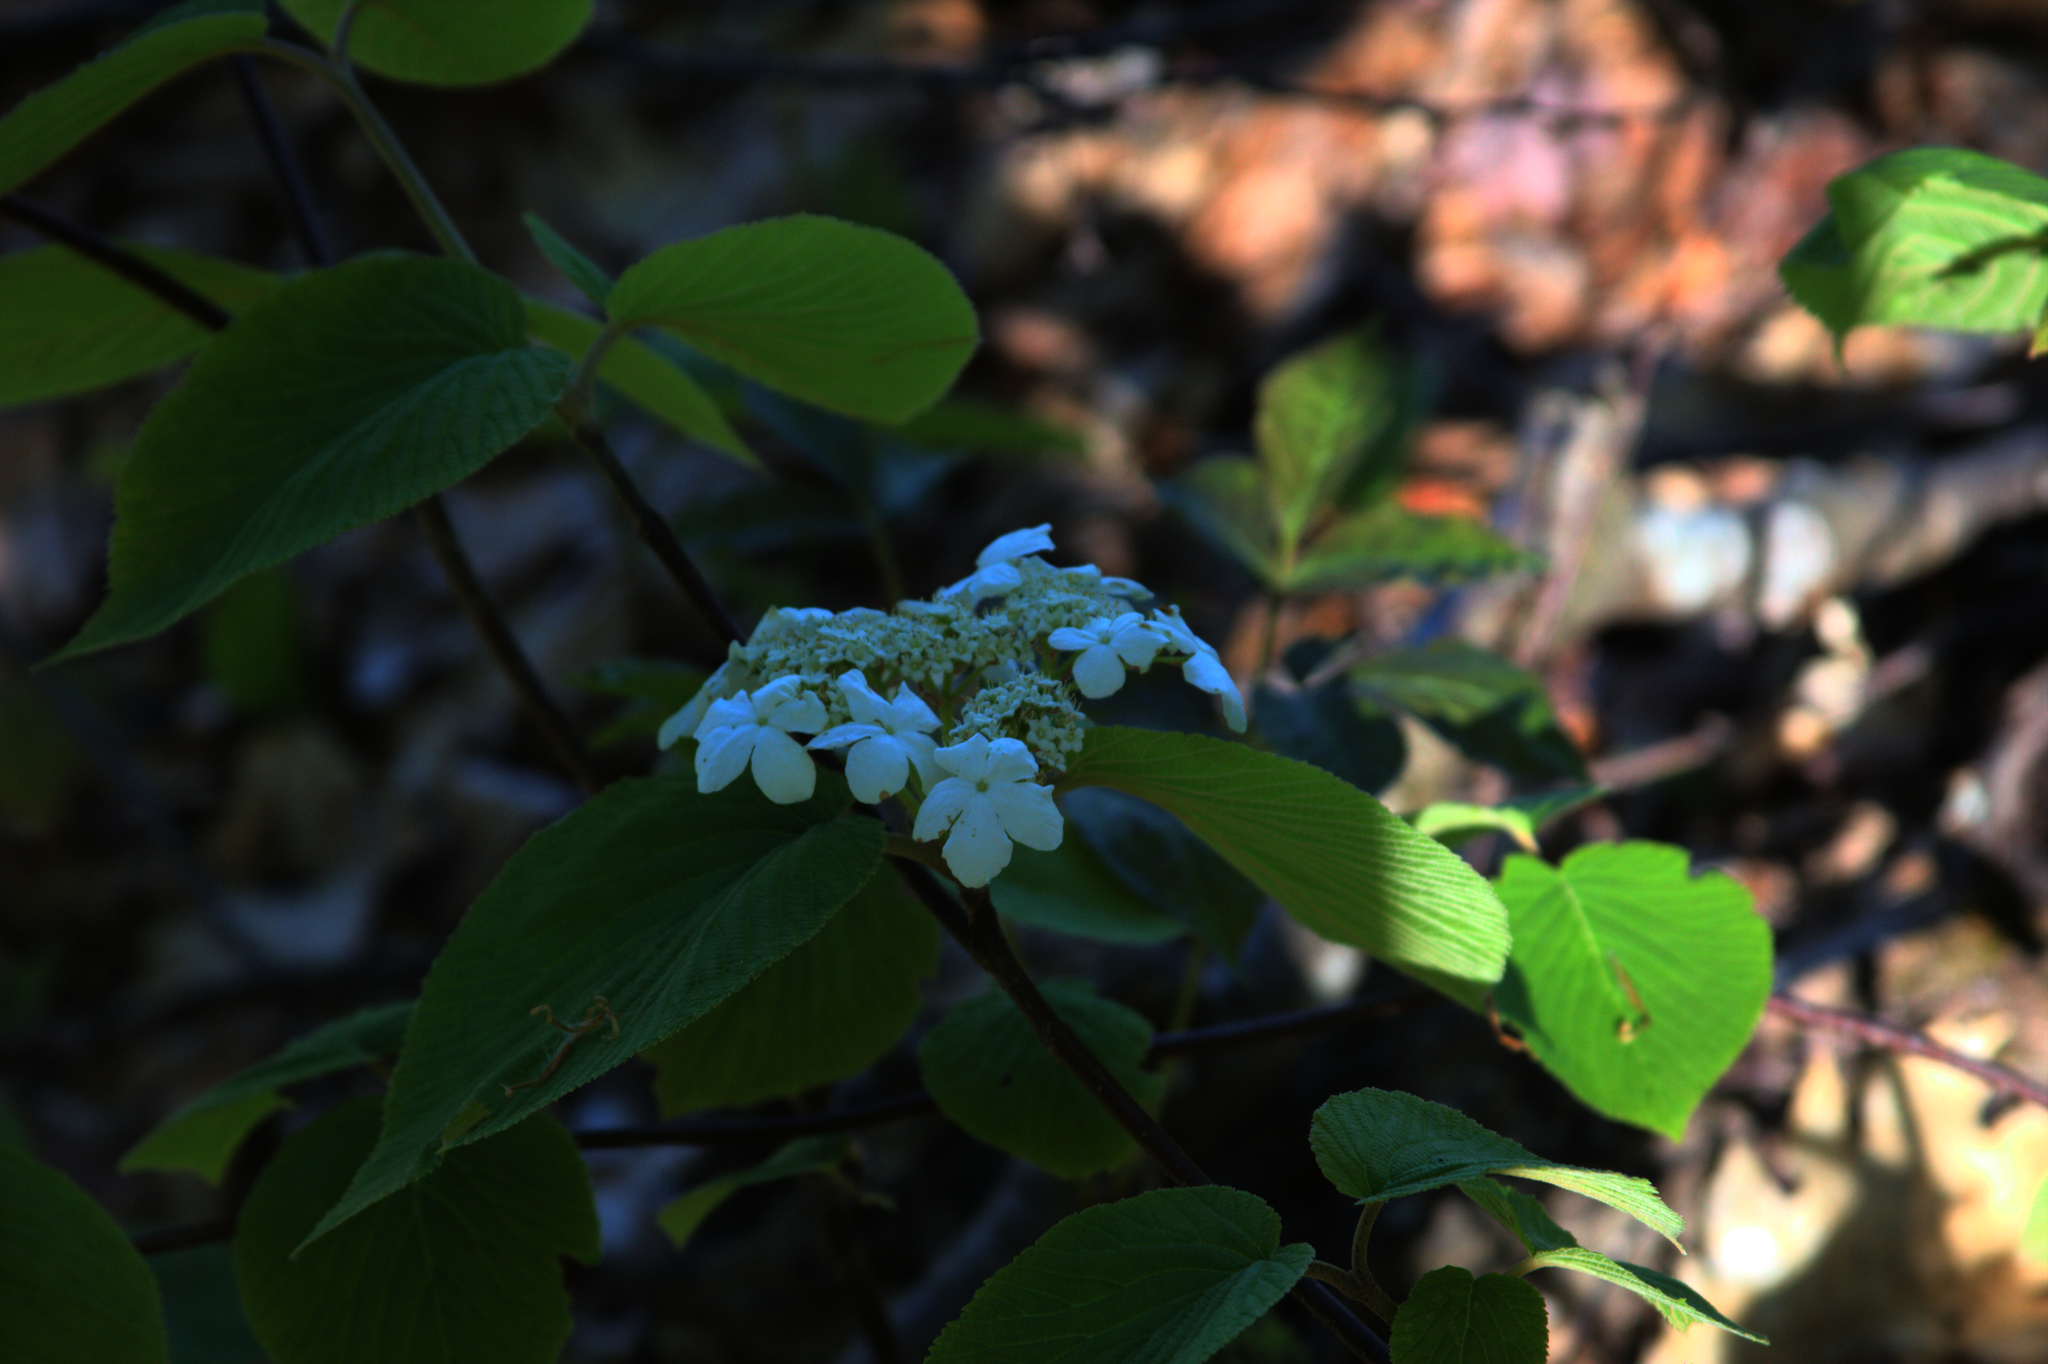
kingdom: Plantae
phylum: Tracheophyta
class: Magnoliopsida
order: Dipsacales
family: Viburnaceae
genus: Viburnum
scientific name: Viburnum lantanoides
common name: Hobblebush
